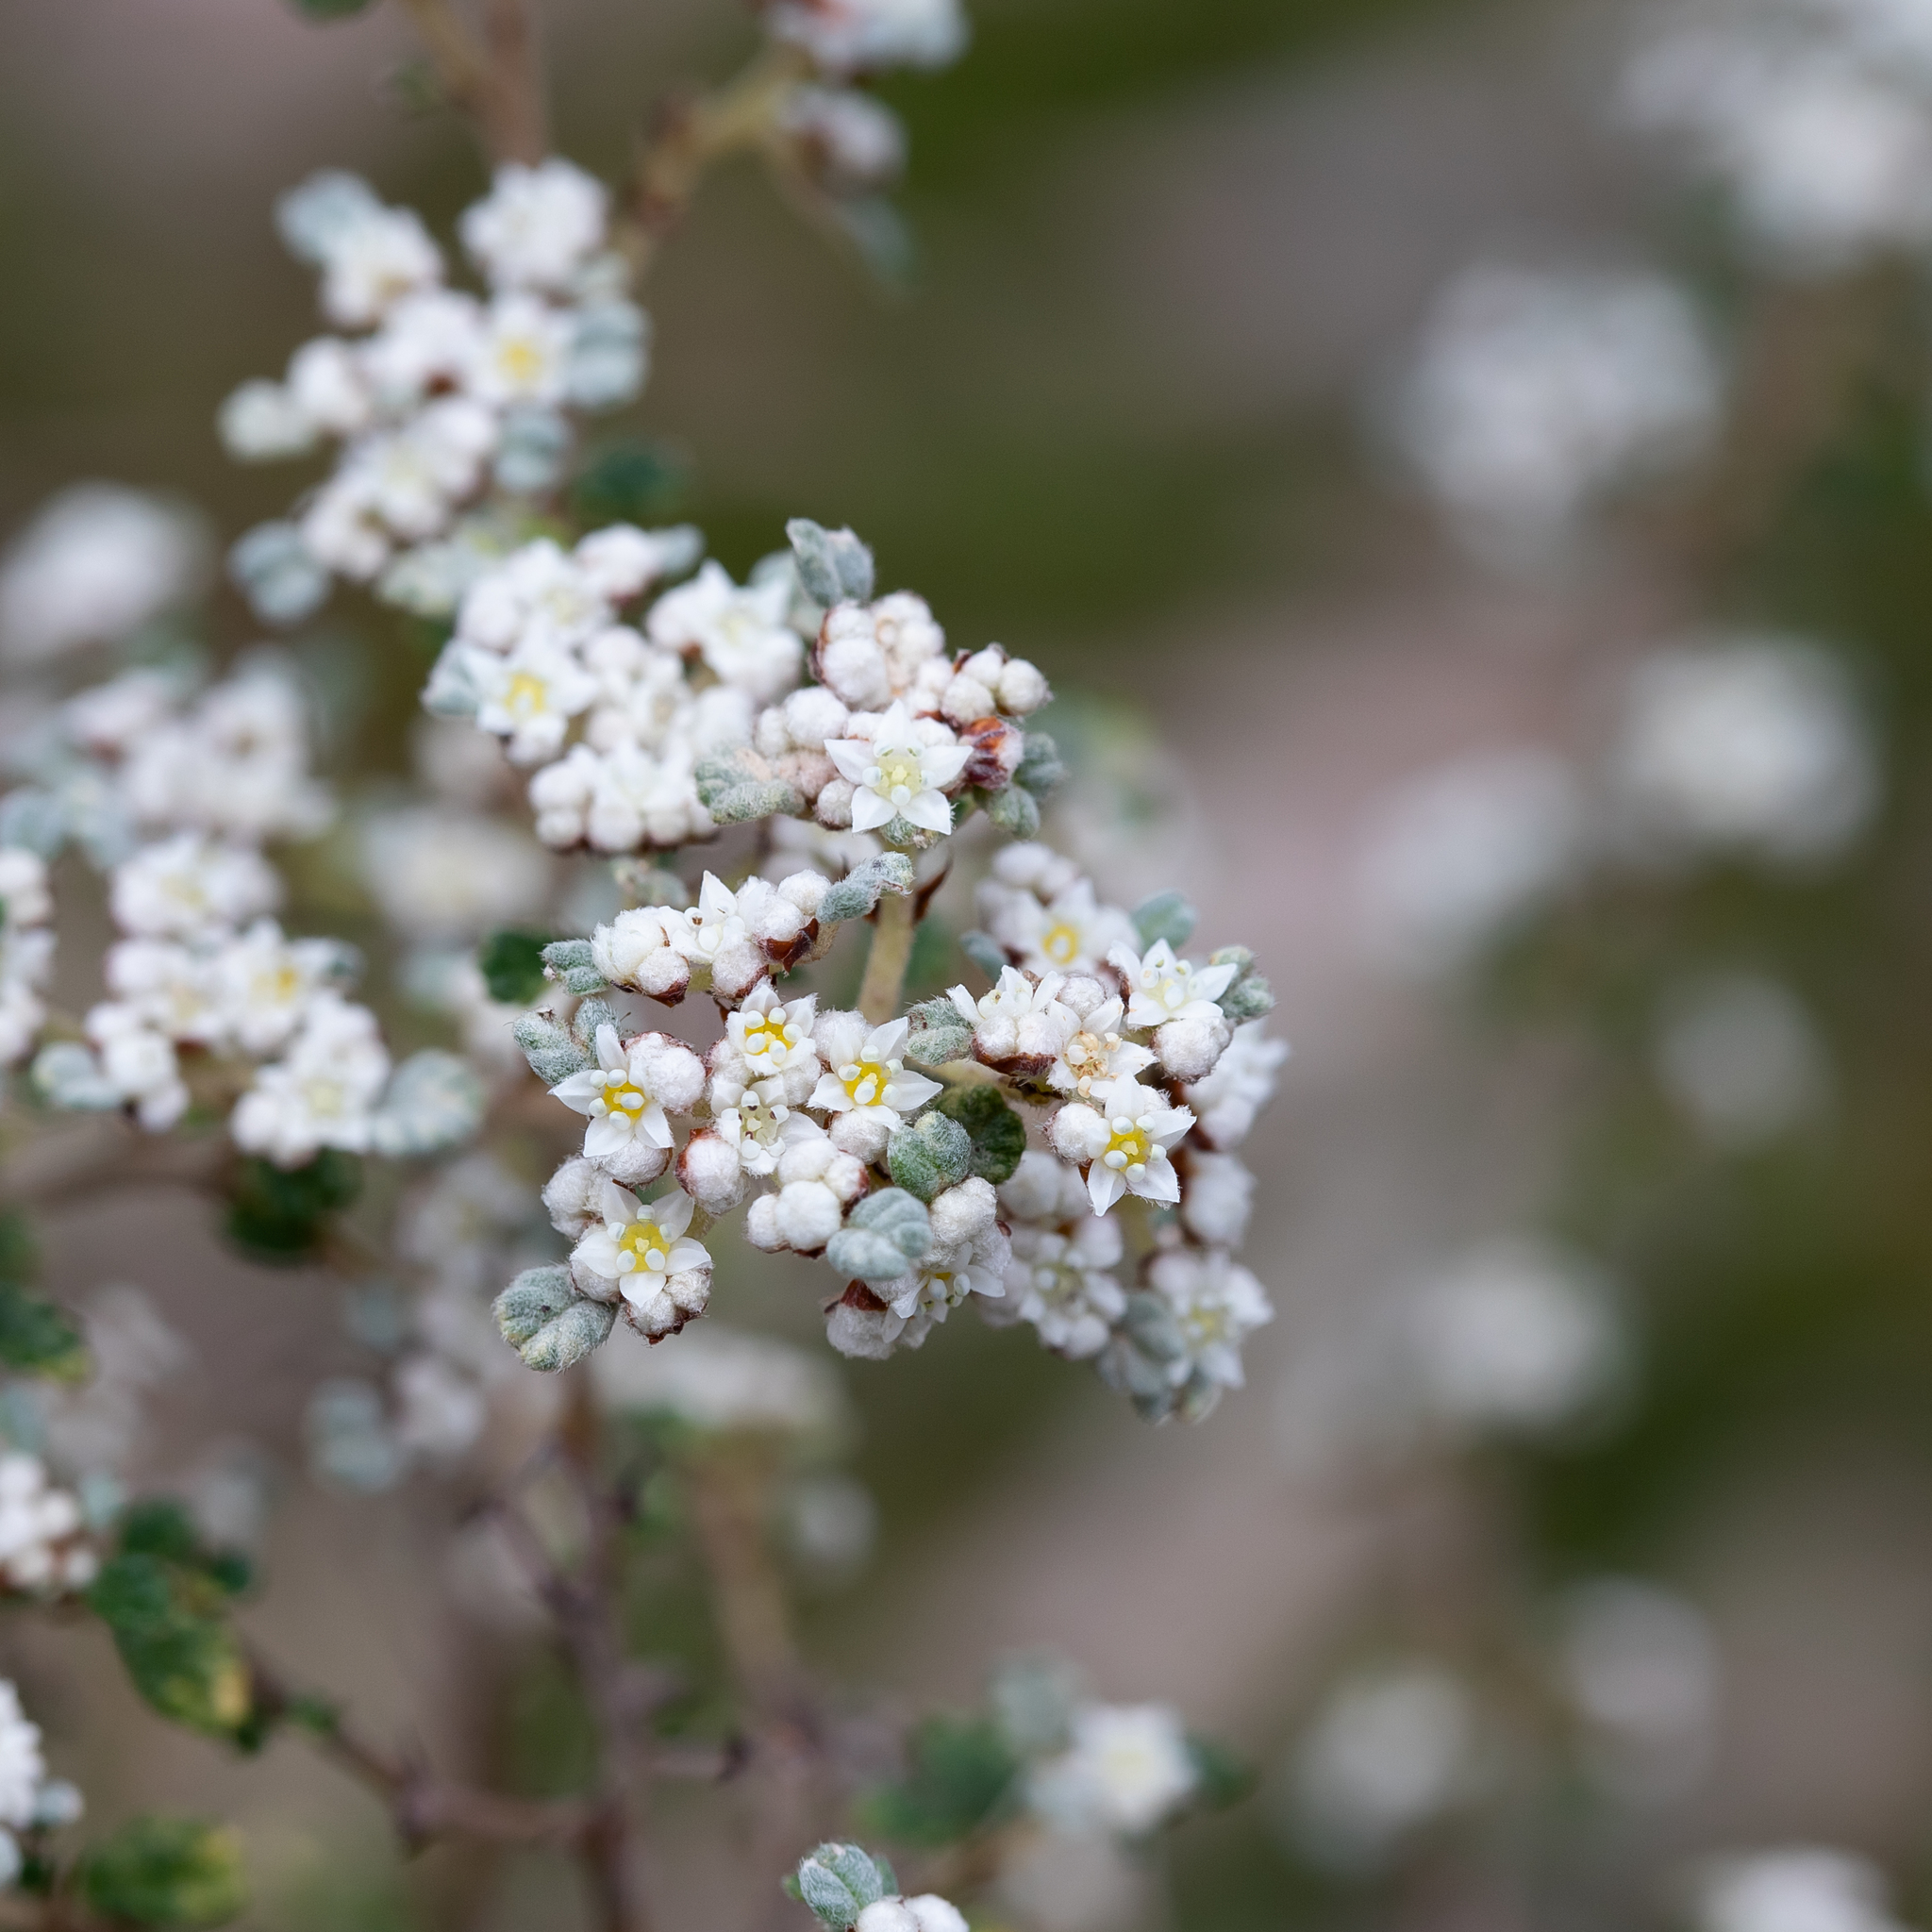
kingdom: Plantae
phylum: Tracheophyta
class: Magnoliopsida
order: Rosales
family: Rhamnaceae
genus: Spyridium
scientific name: Spyridium parvifolium
